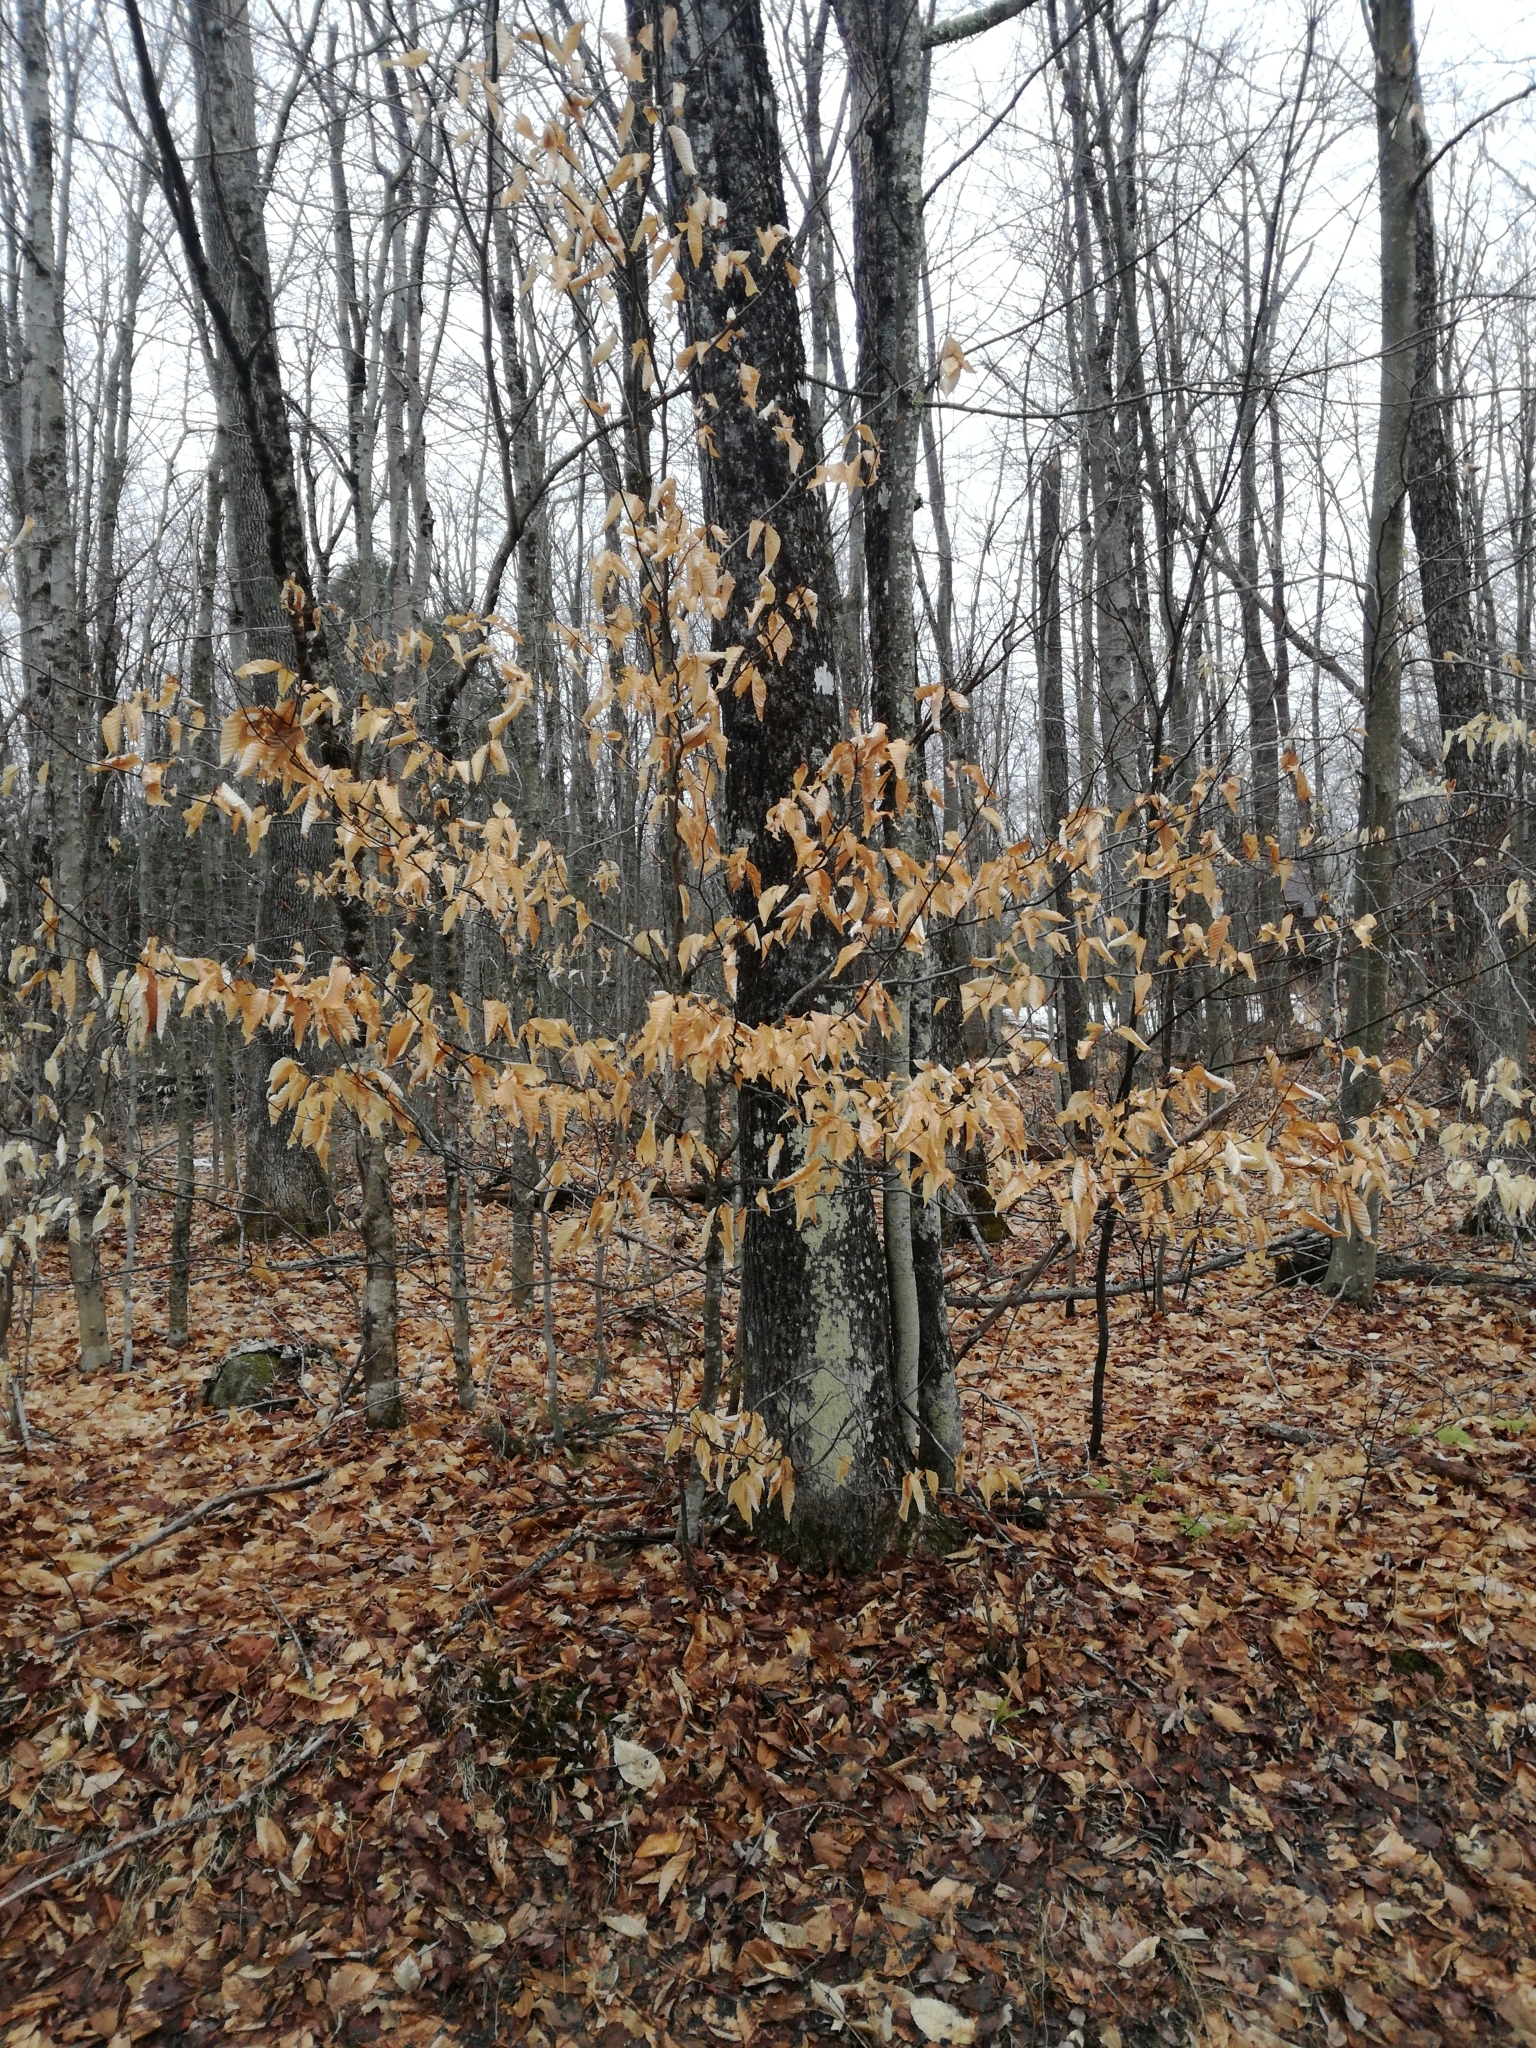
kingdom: Plantae
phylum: Tracheophyta
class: Magnoliopsida
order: Fagales
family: Fagaceae
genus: Fagus
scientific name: Fagus grandifolia
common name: American beech
